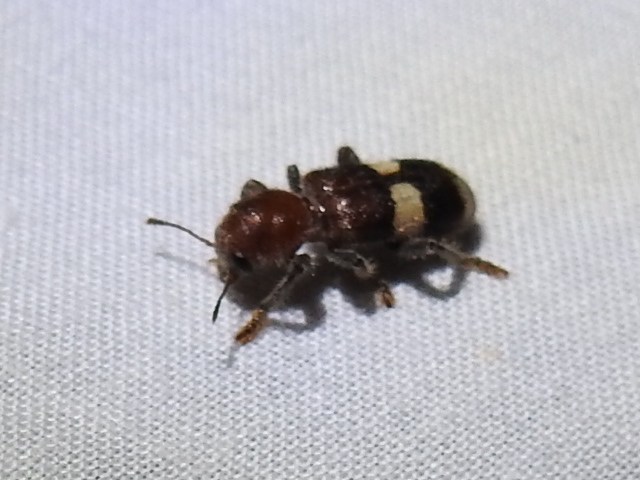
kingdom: Animalia
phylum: Arthropoda
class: Insecta
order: Coleoptera
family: Cleridae
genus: Enoclerus
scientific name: Enoclerus quadrisignatus
